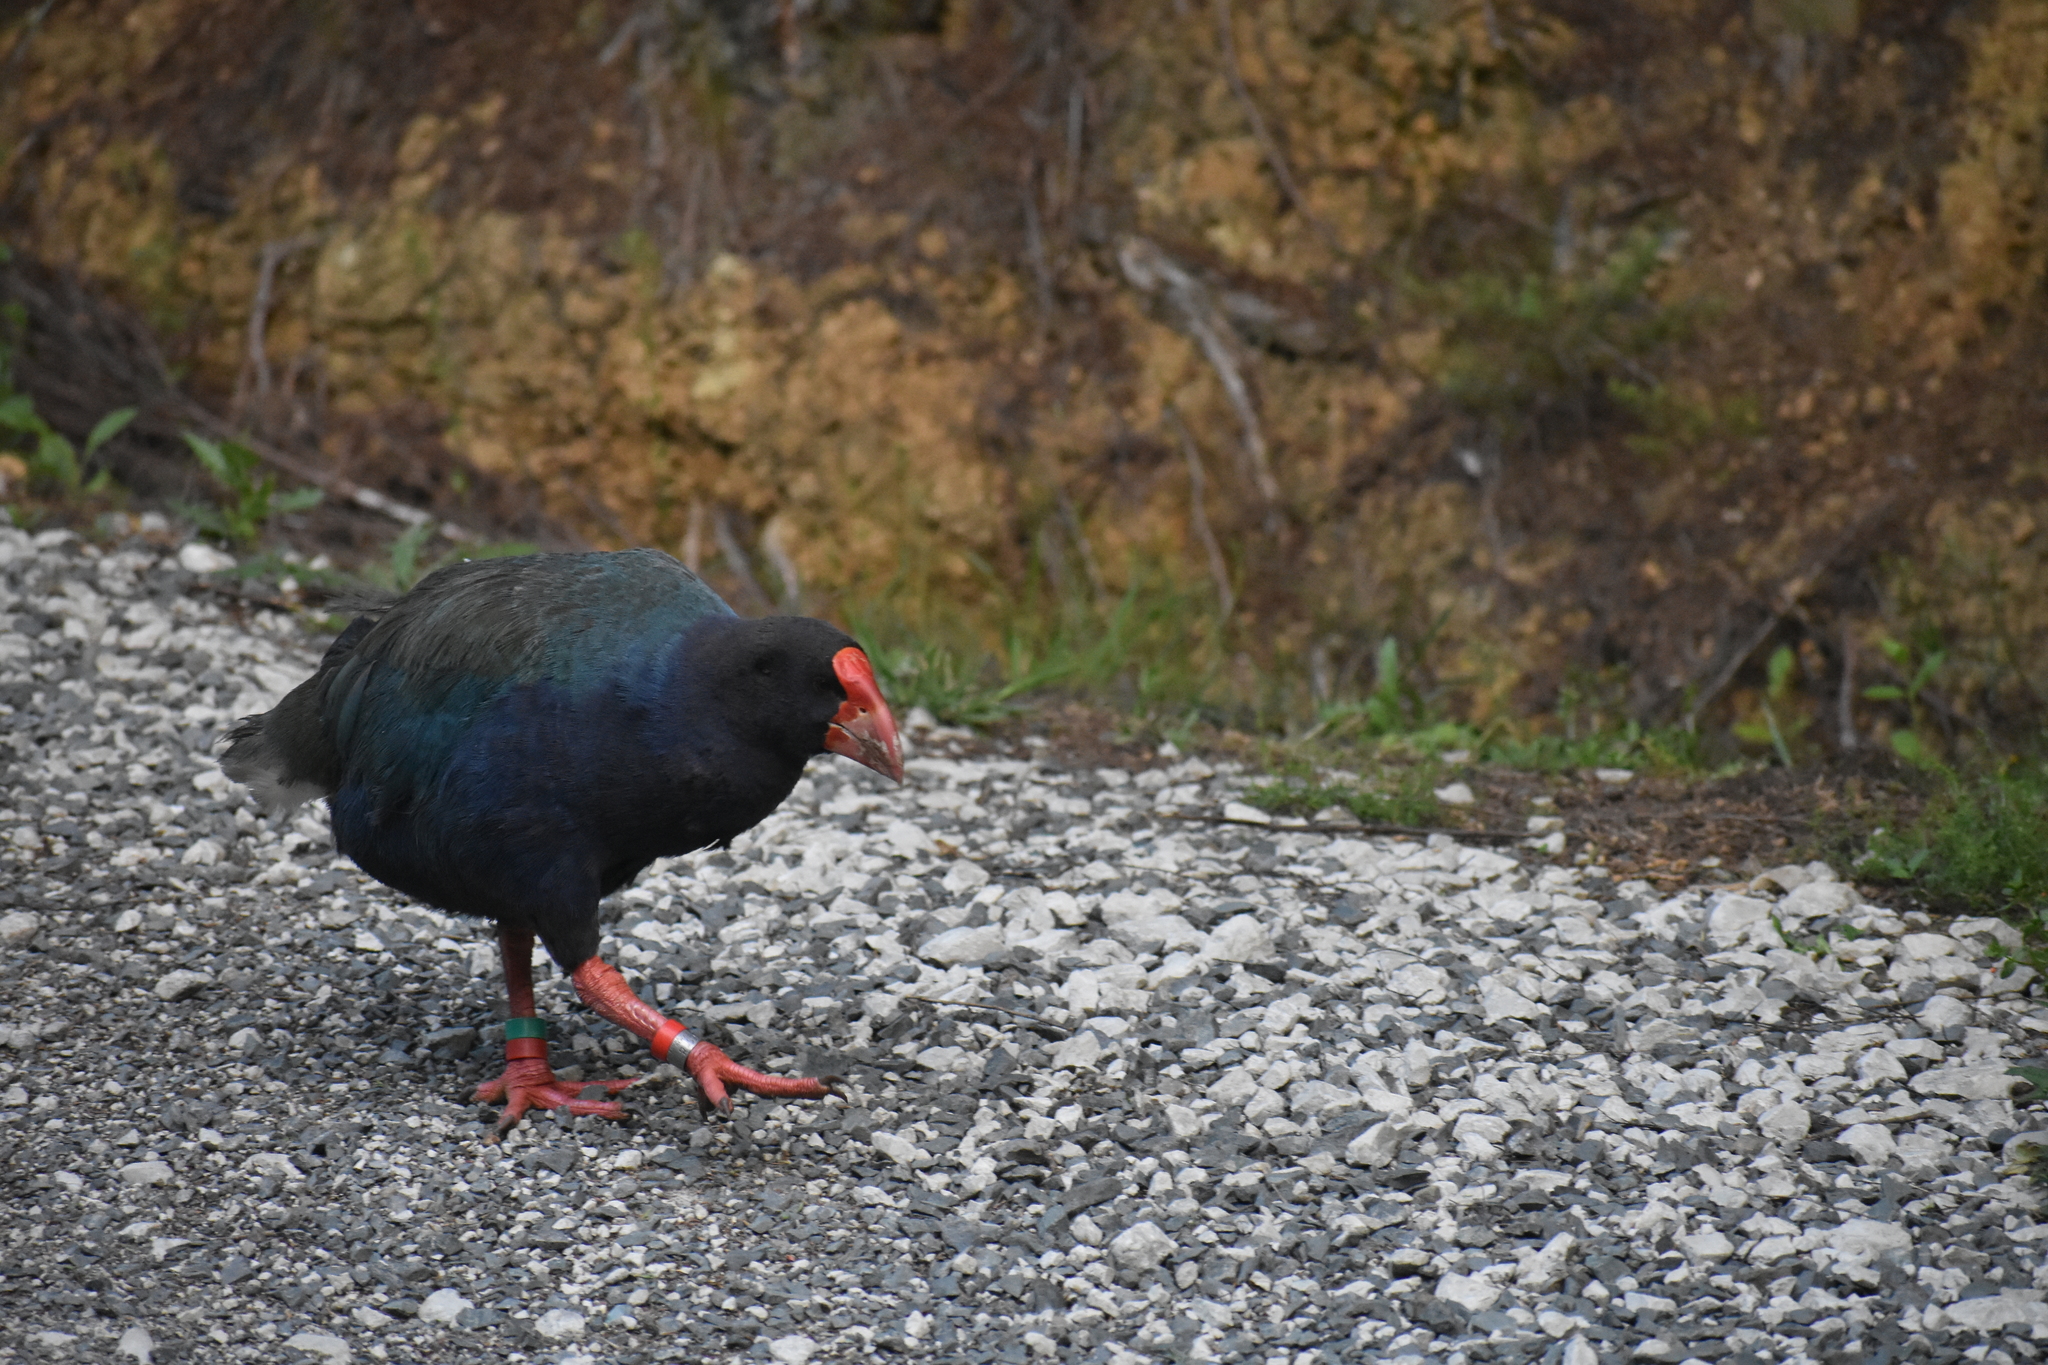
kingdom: Animalia
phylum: Chordata
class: Aves
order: Gruiformes
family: Rallidae
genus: Porphyrio
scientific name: Porphyrio hochstetteri
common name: South island takahe
